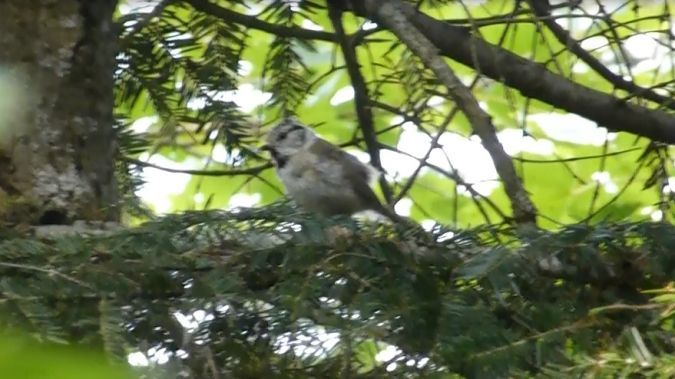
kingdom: Animalia
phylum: Chordata
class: Aves
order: Passeriformes
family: Paridae
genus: Lophophanes
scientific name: Lophophanes cristatus
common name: European crested tit
